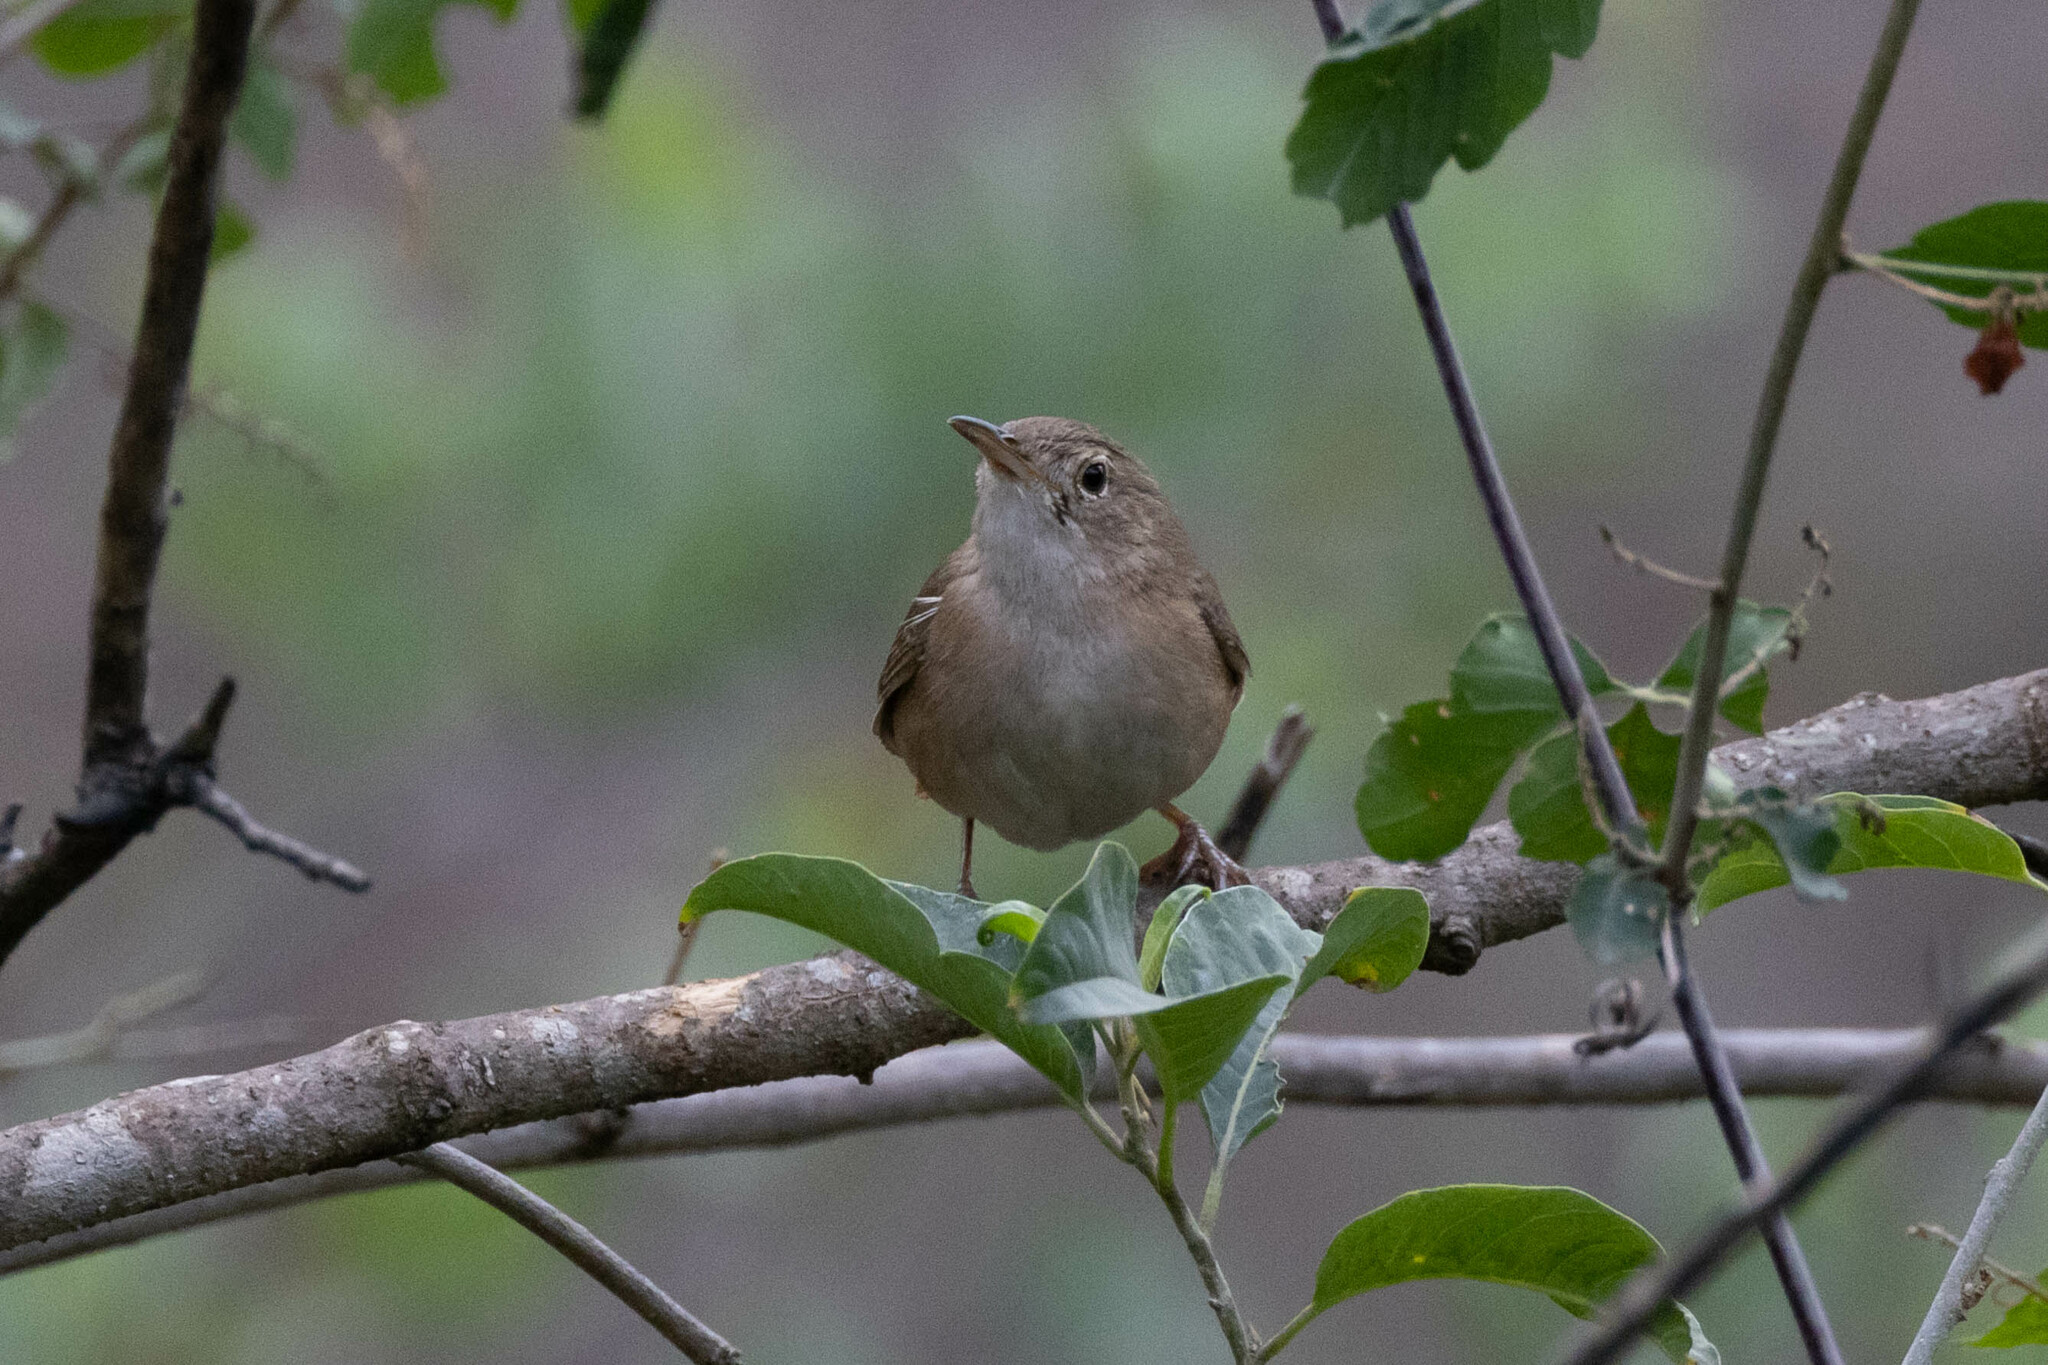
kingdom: Animalia
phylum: Chordata
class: Aves
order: Passeriformes
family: Troglodytidae
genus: Troglodytes
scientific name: Troglodytes aedon
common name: House wren
